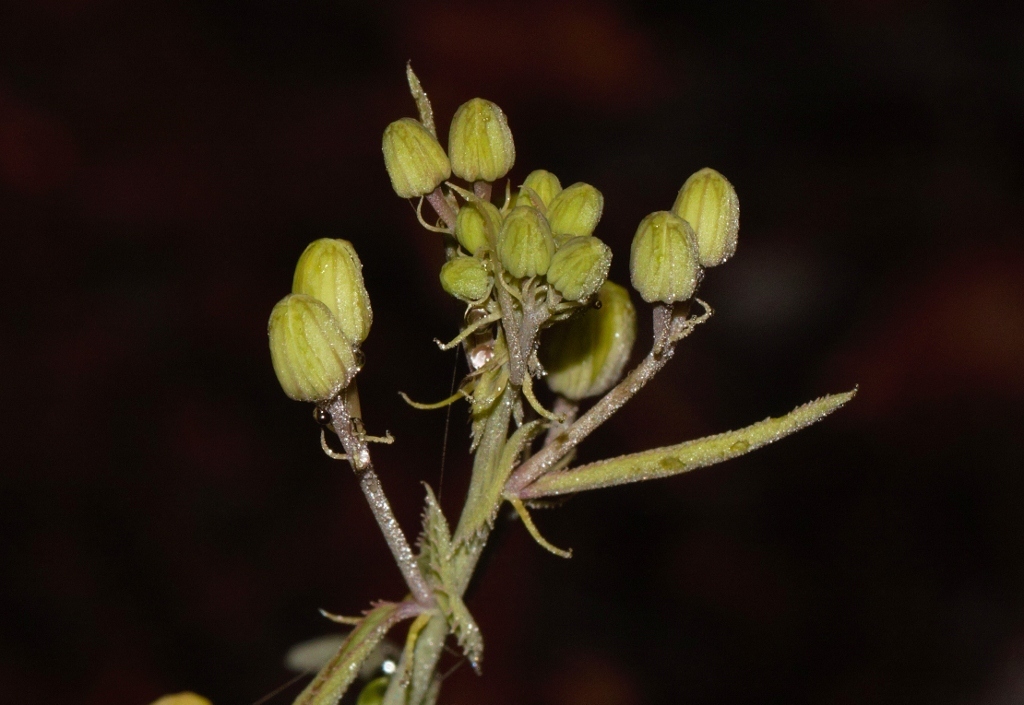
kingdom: Plantae
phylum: Tracheophyta
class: Magnoliopsida
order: Malpighiales
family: Passifloraceae
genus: Basananthe
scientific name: Basananthe apetala
